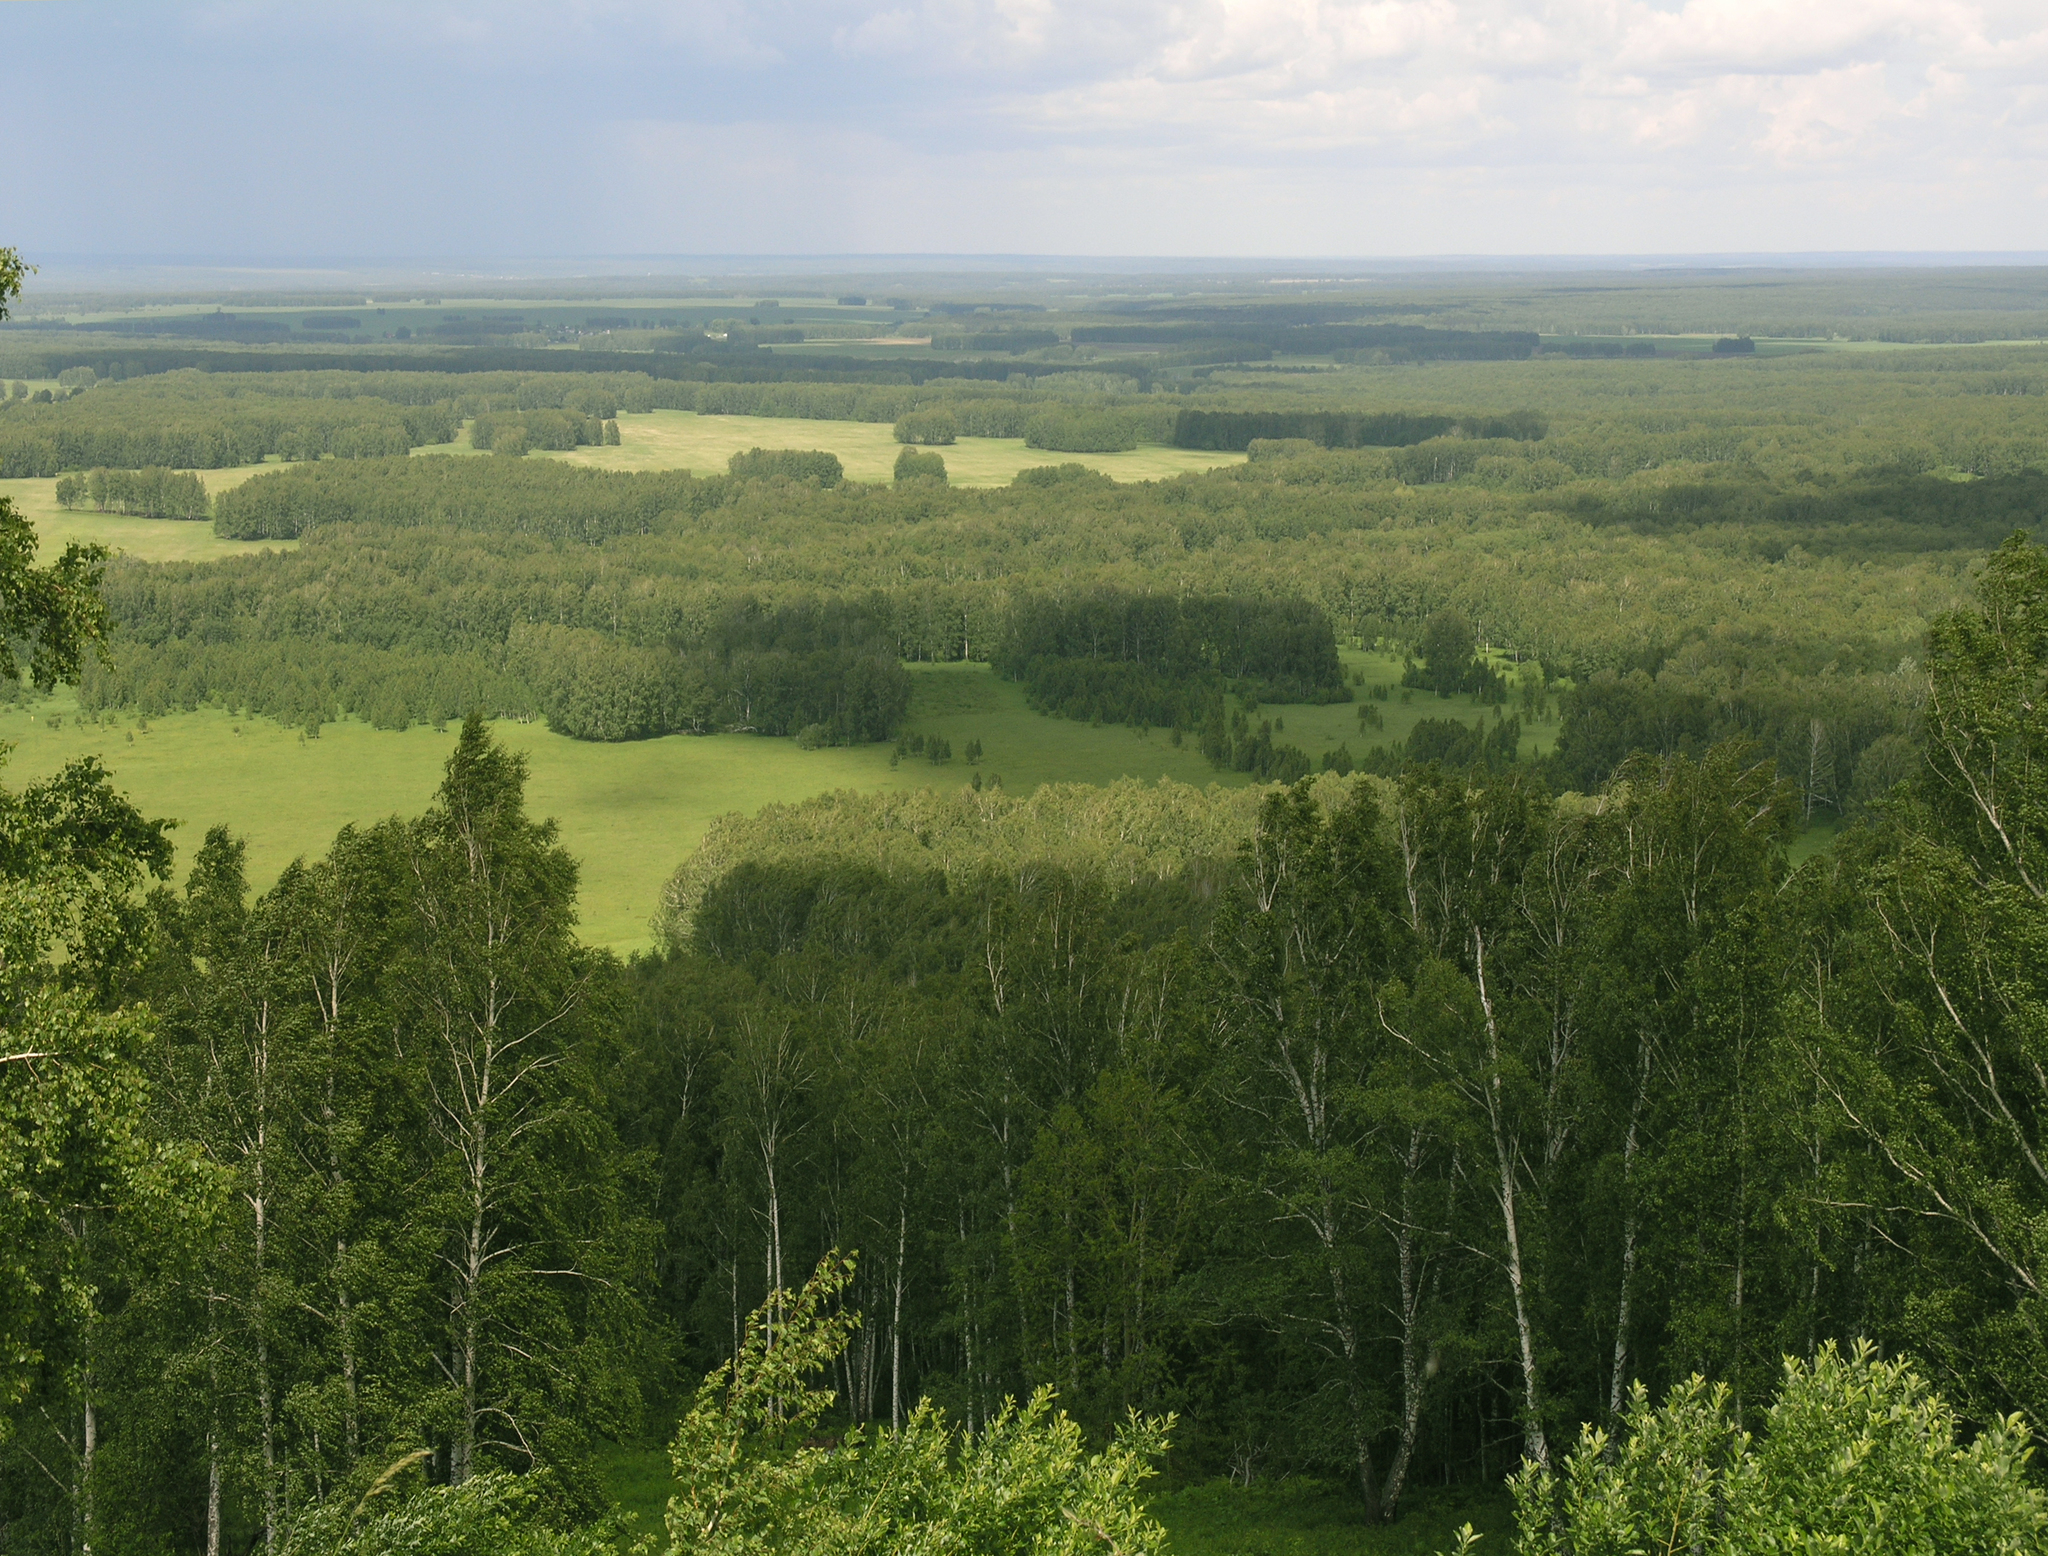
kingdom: Plantae
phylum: Tracheophyta
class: Magnoliopsida
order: Fagales
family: Betulaceae
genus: Betula
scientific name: Betula pendula
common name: Silver birch
